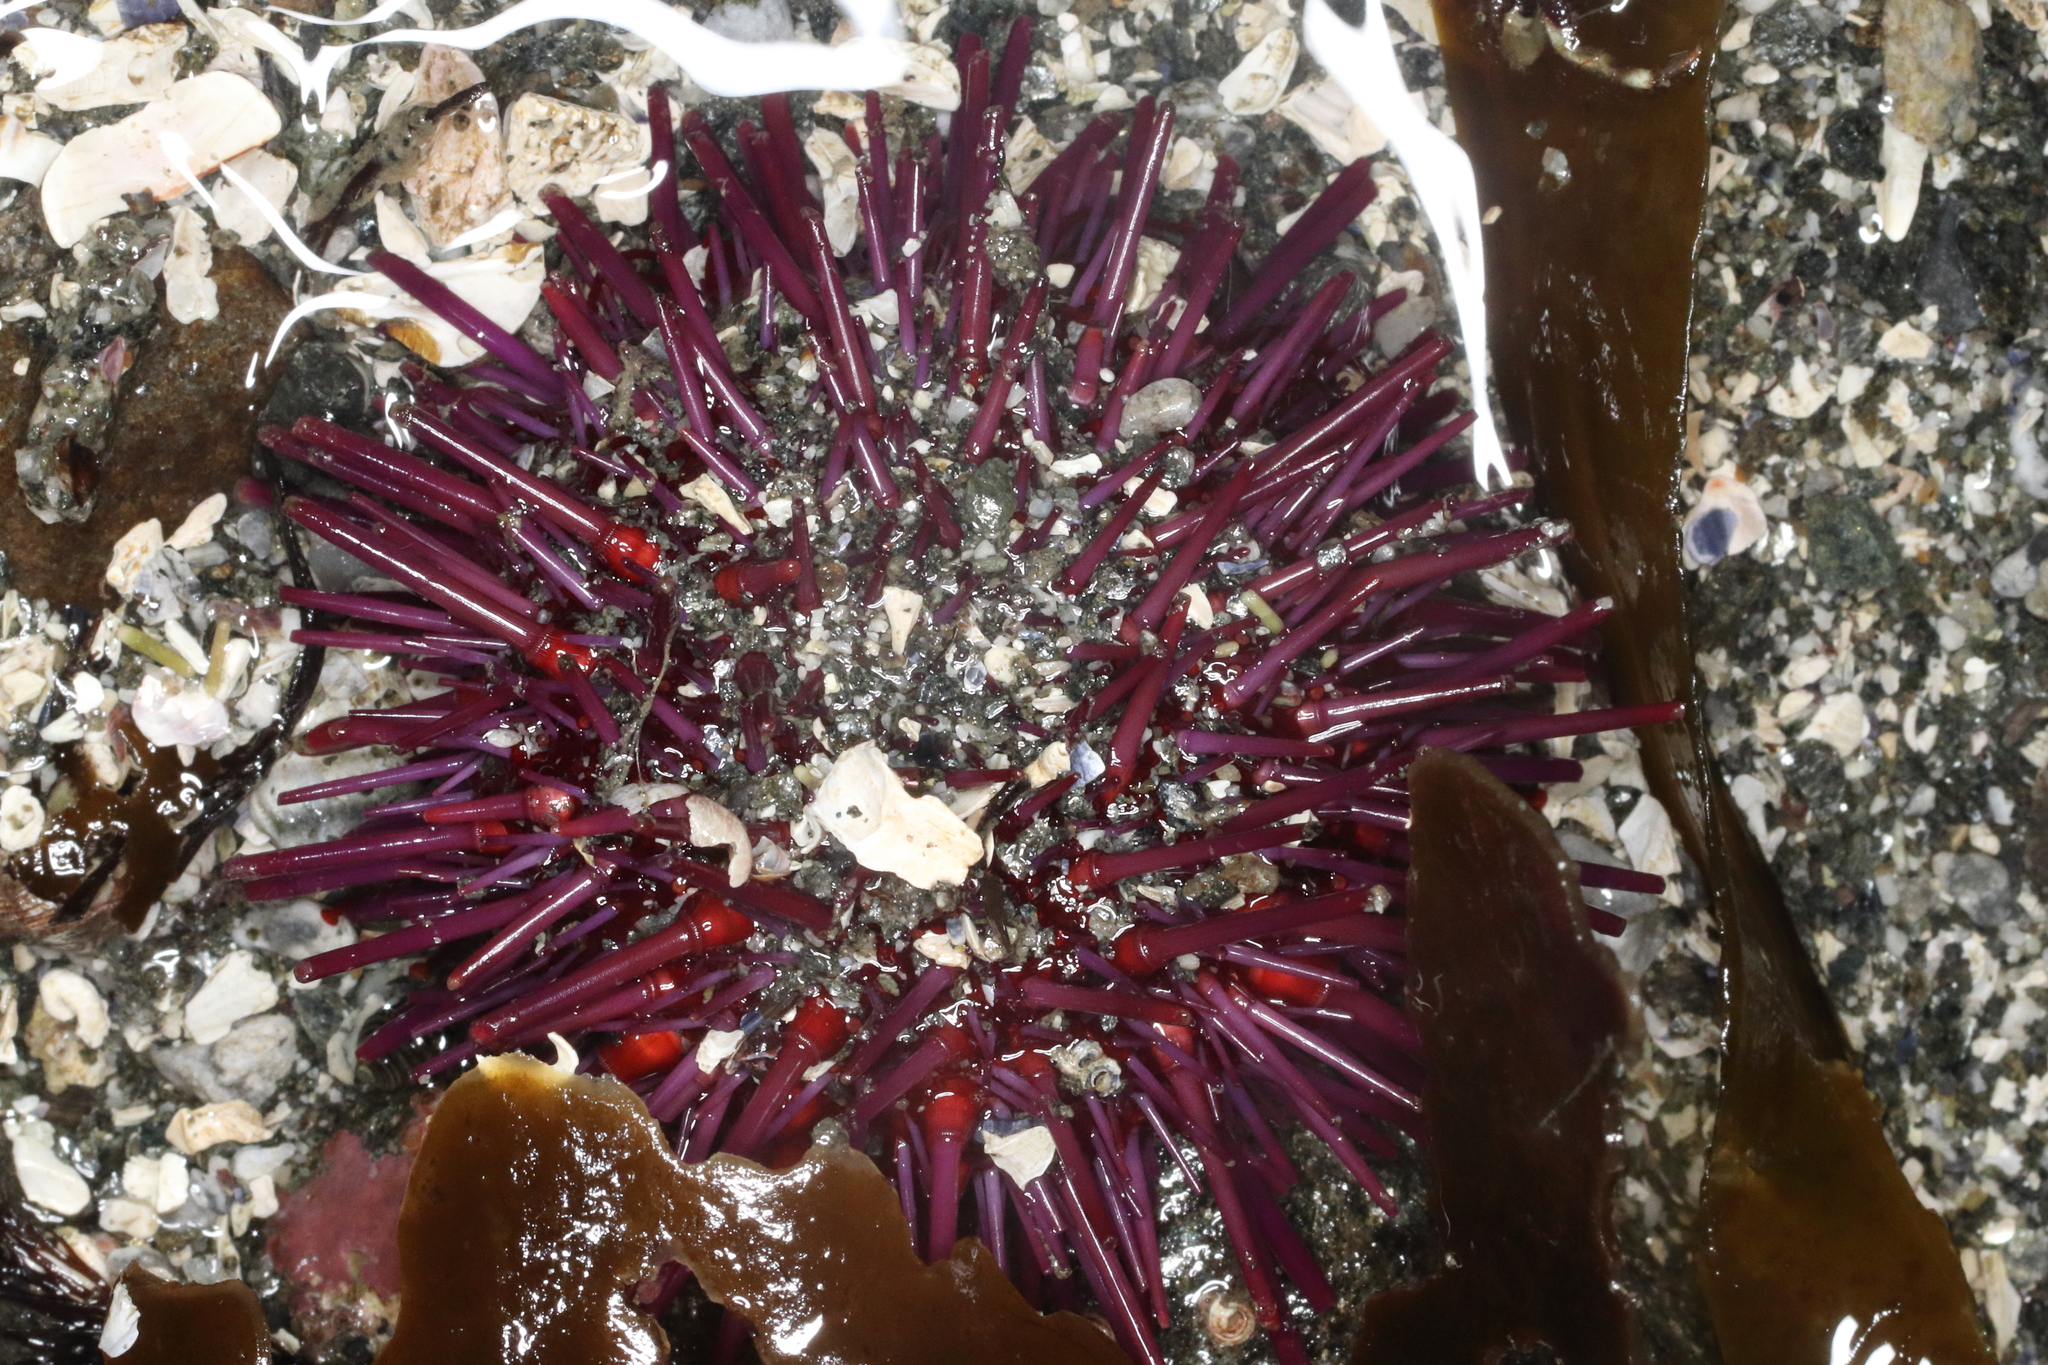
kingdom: Animalia
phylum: Echinodermata
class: Echinoidea
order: Camarodonta
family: Strongylocentrotidae
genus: Mesocentrotus
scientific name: Mesocentrotus franciscanus
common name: Red sea urchin
